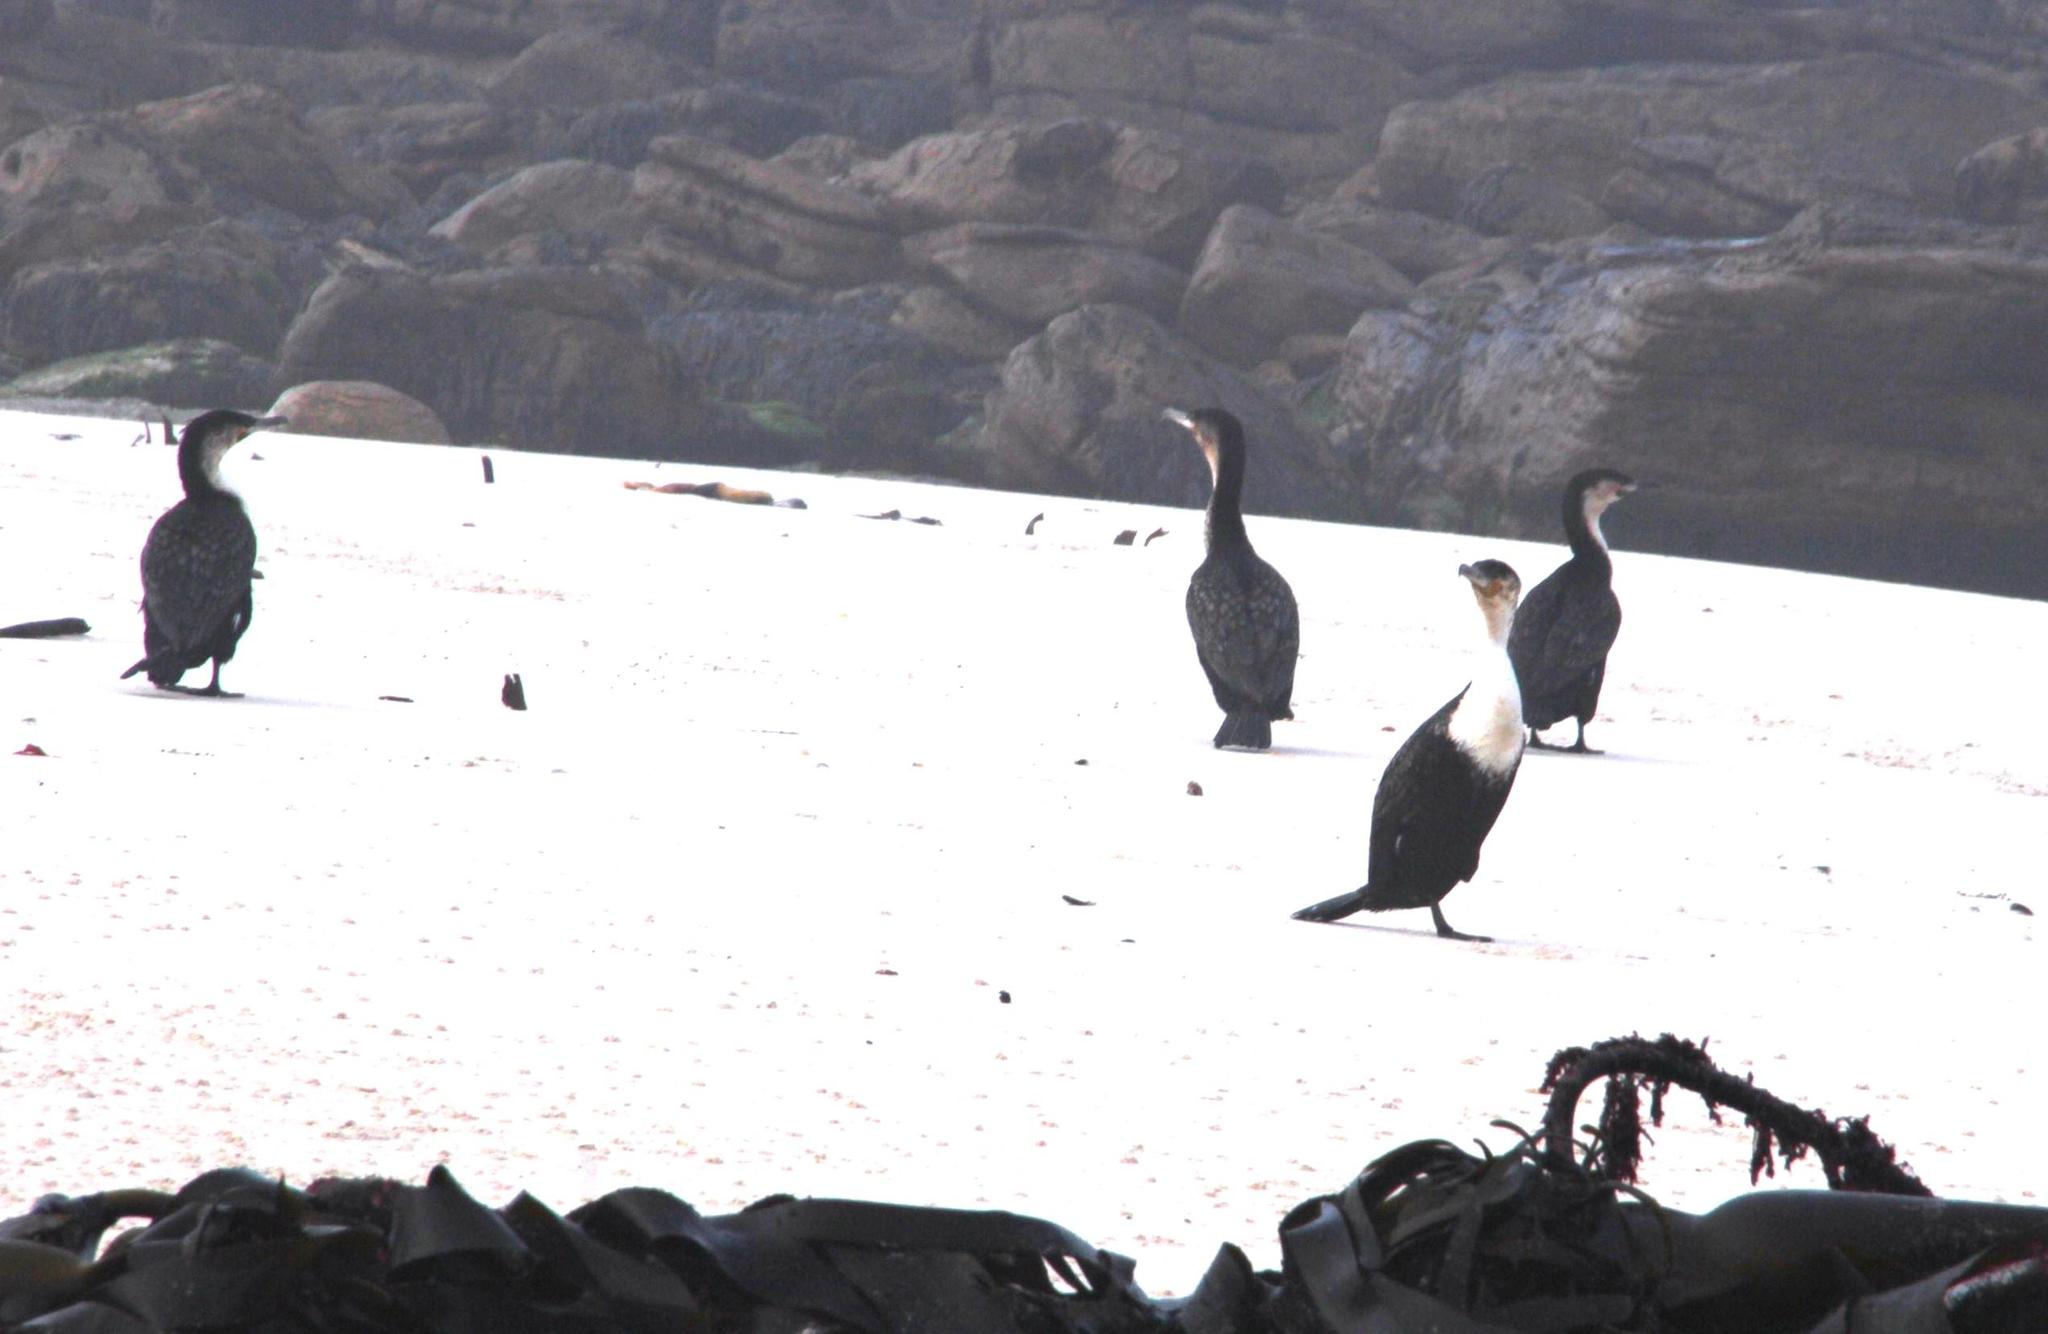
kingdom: Animalia
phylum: Chordata
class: Aves
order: Suliformes
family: Phalacrocoracidae
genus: Phalacrocorax
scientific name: Phalacrocorax carbo
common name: Great cormorant
